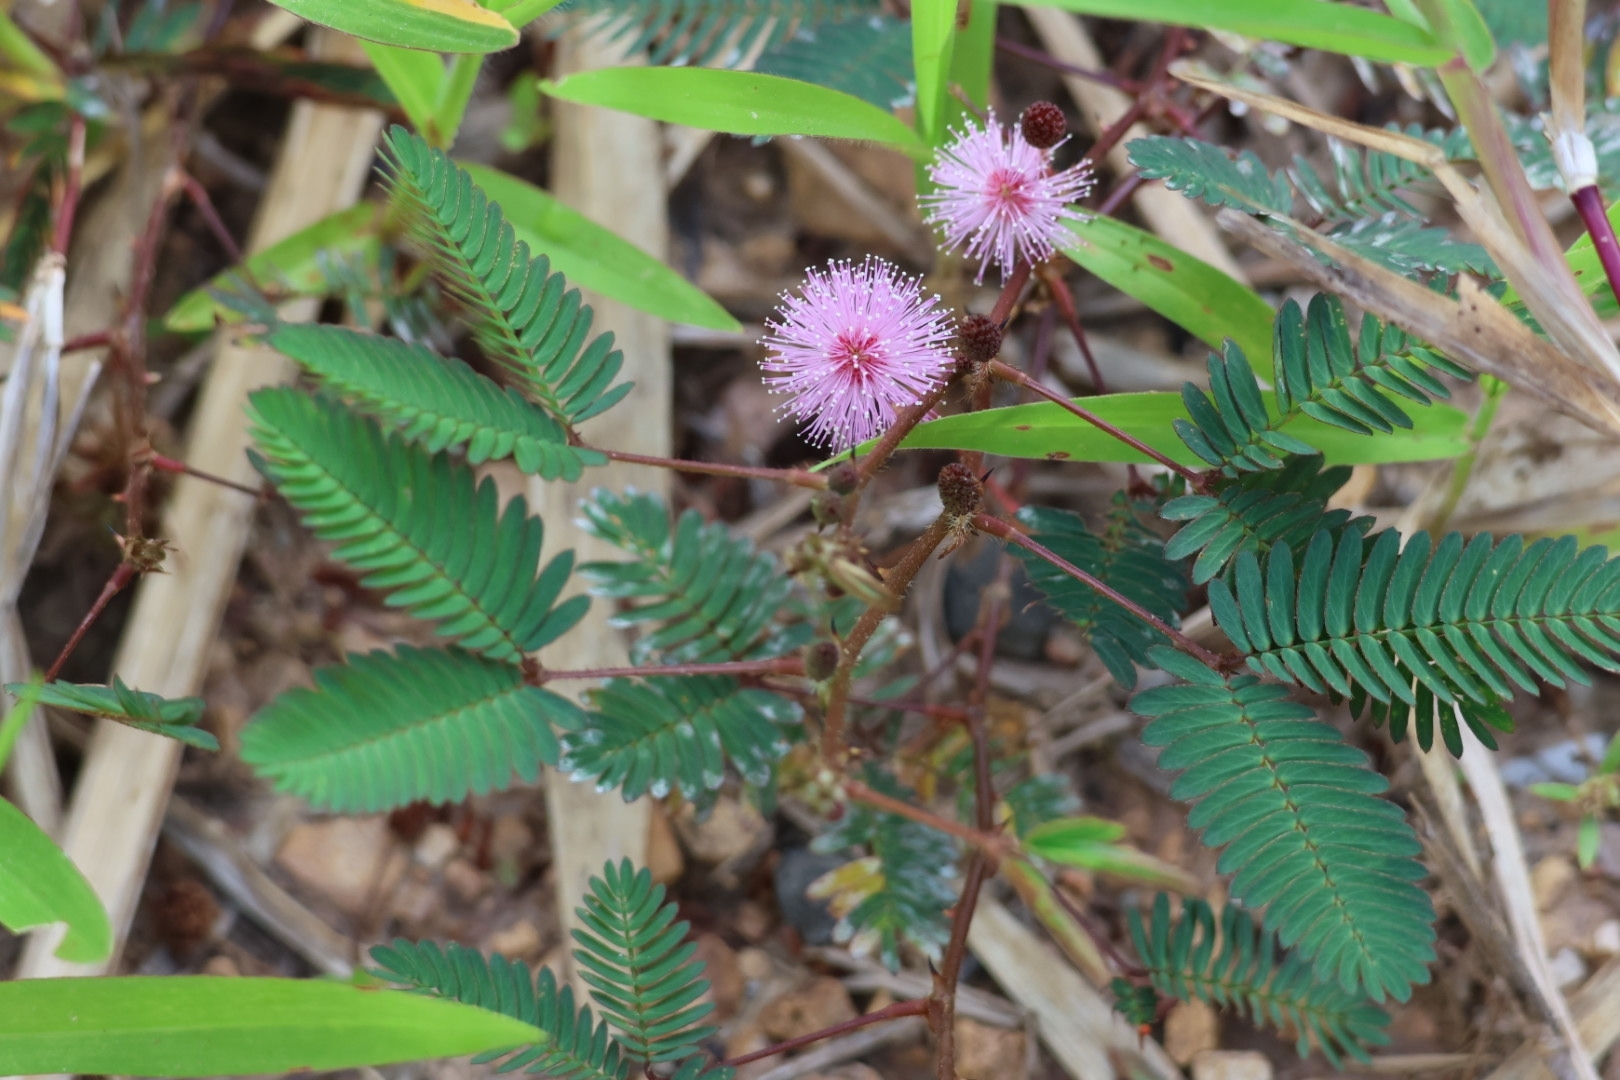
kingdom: Plantae
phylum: Tracheophyta
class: Magnoliopsida
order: Fabales
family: Fabaceae
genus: Mimosa
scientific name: Mimosa pudica
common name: Sensitive plant
